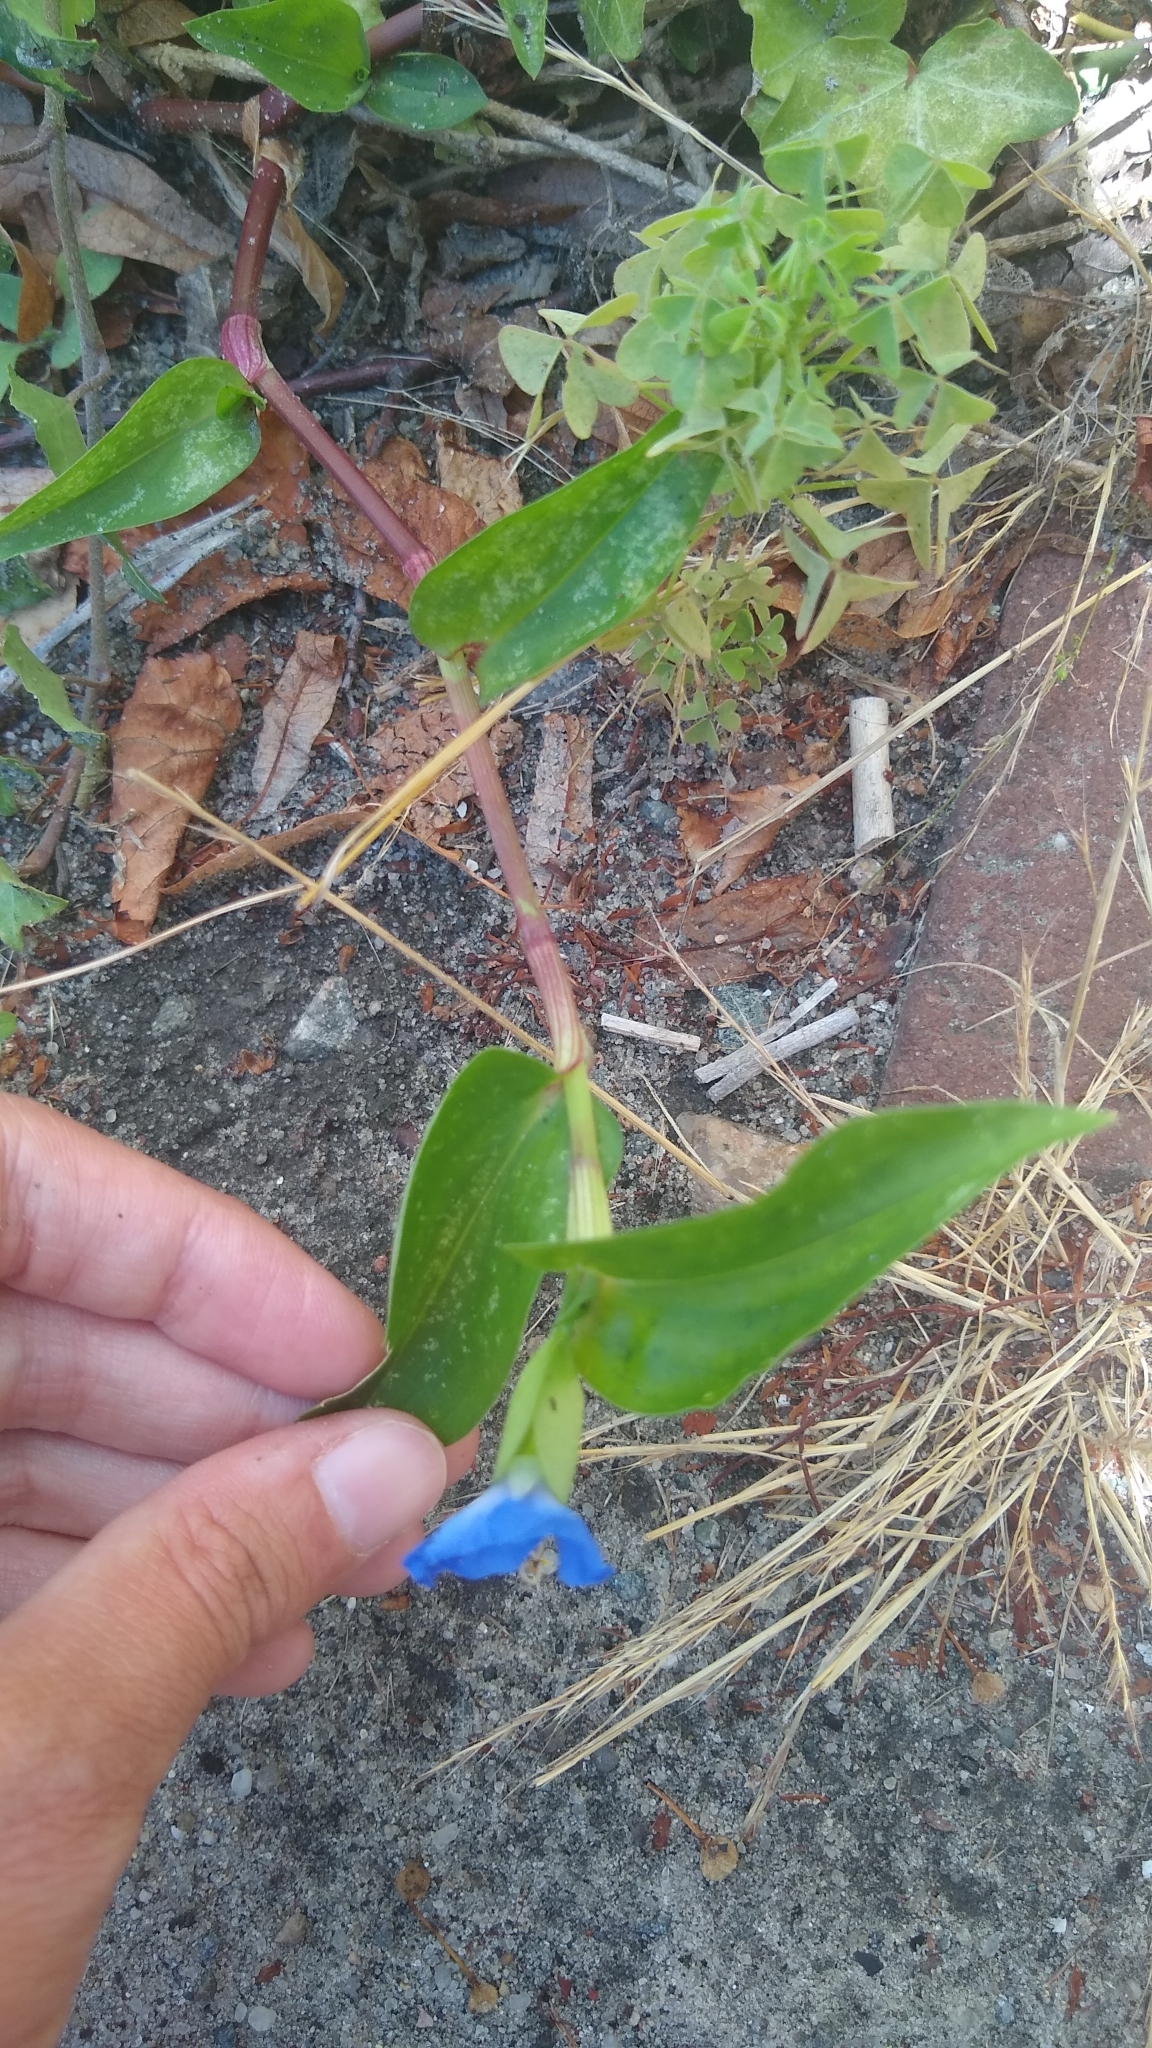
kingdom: Plantae
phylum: Tracheophyta
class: Liliopsida
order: Commelinales
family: Commelinaceae
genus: Commelina
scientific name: Commelina communis
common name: Asiatic dayflower
